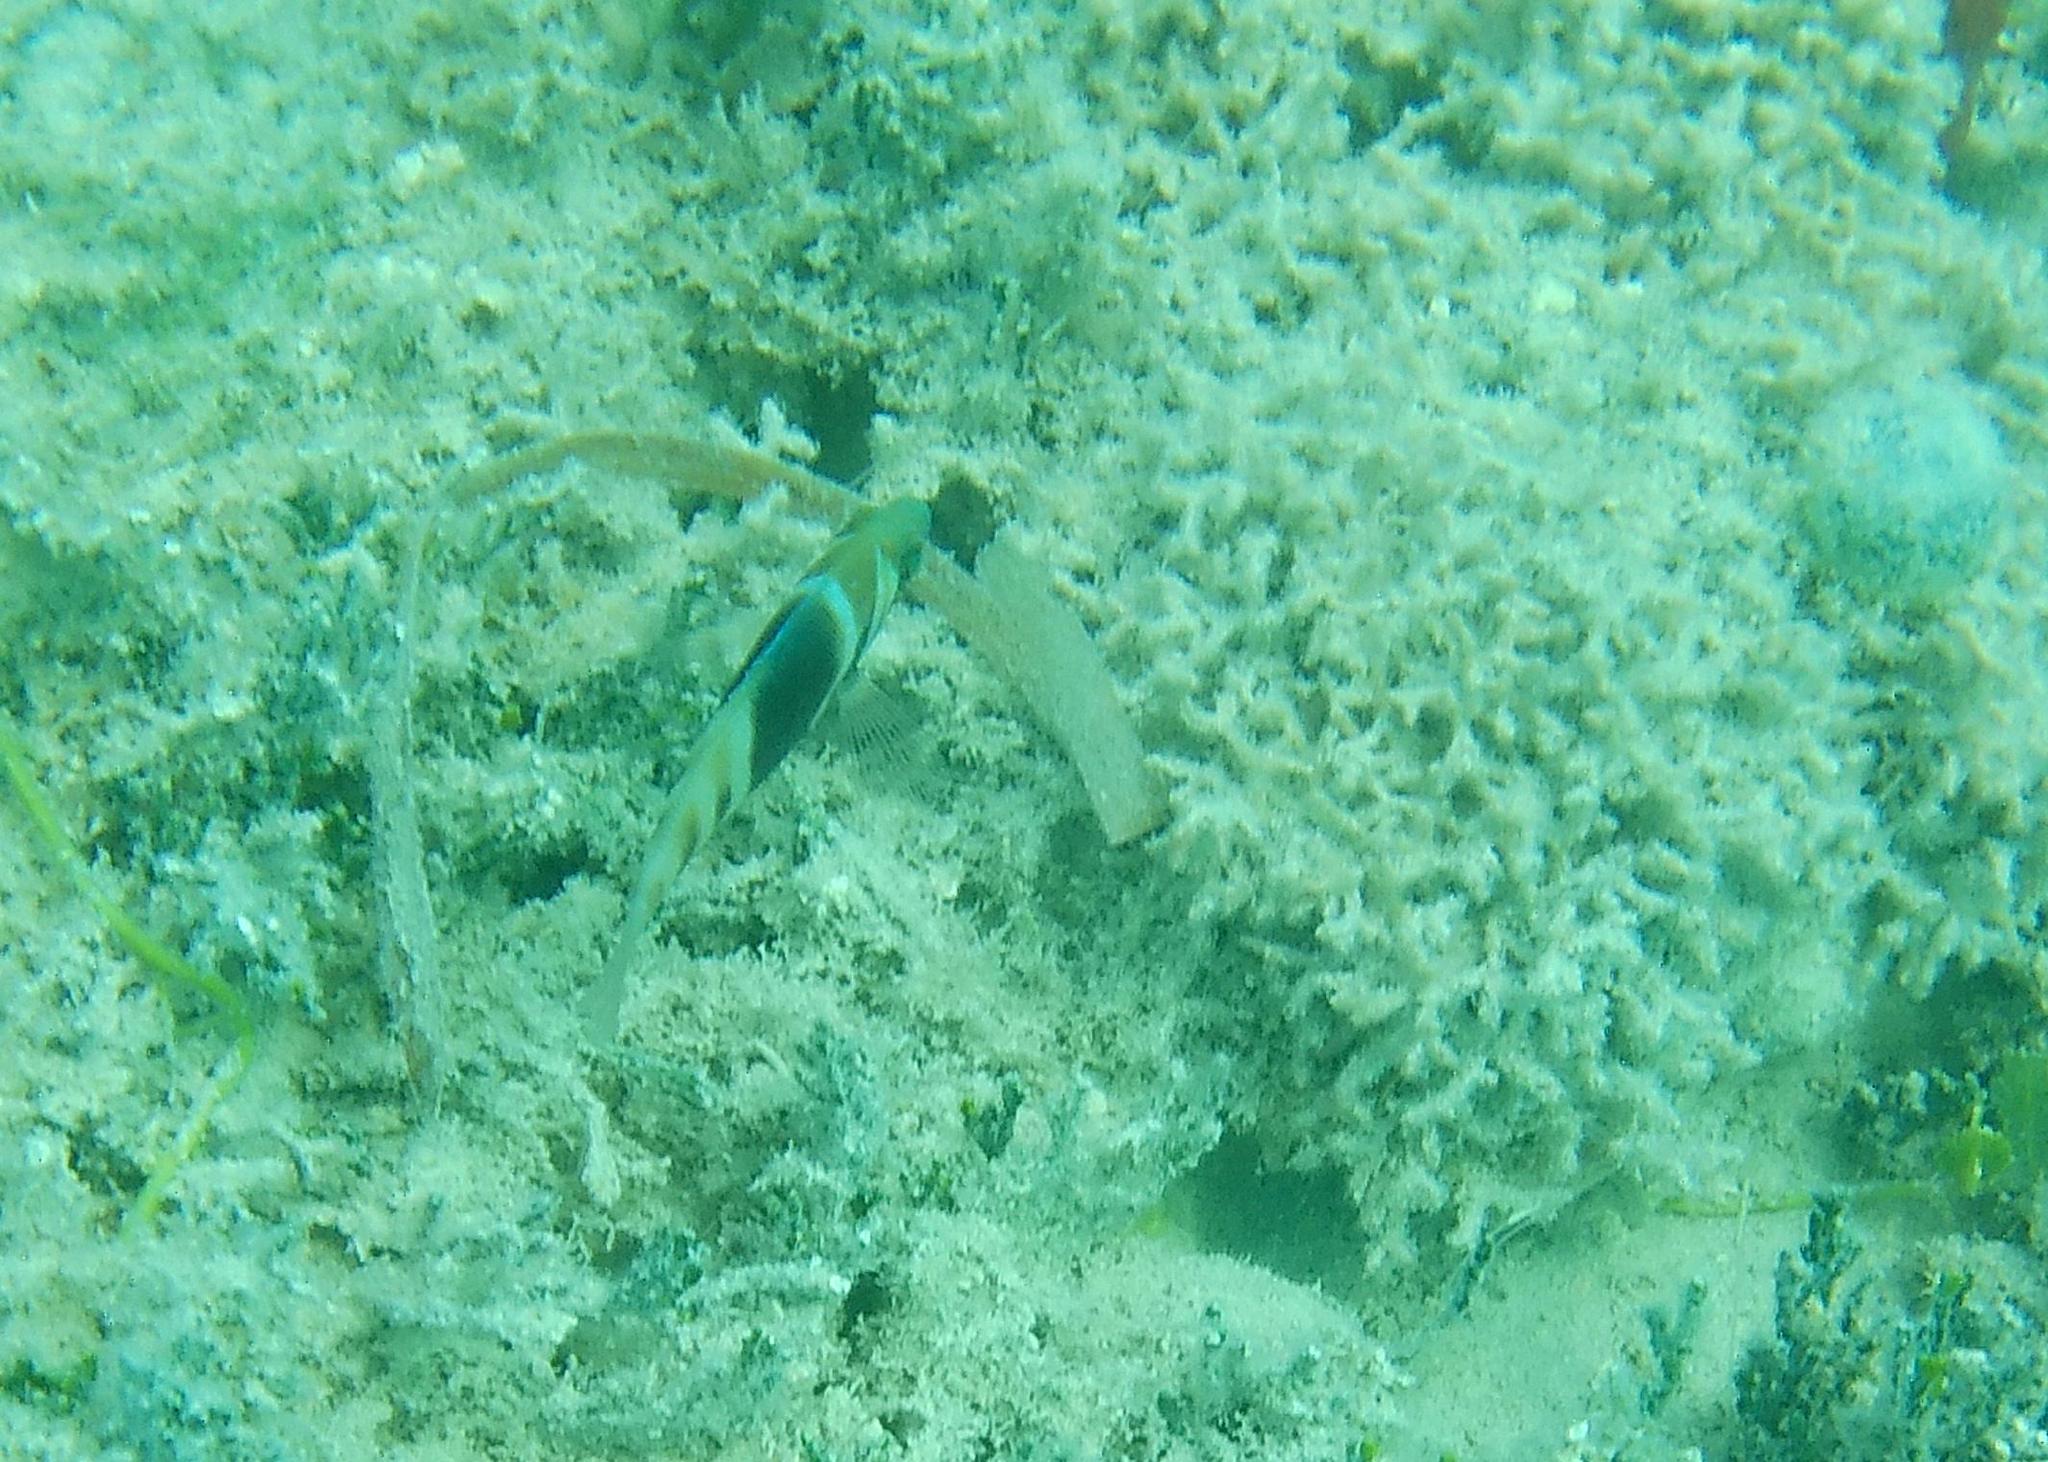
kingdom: Animalia
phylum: Chordata
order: Perciformes
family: Serranidae
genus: Hypoplectrus
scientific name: Hypoplectrus puella
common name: Barred hamlet
